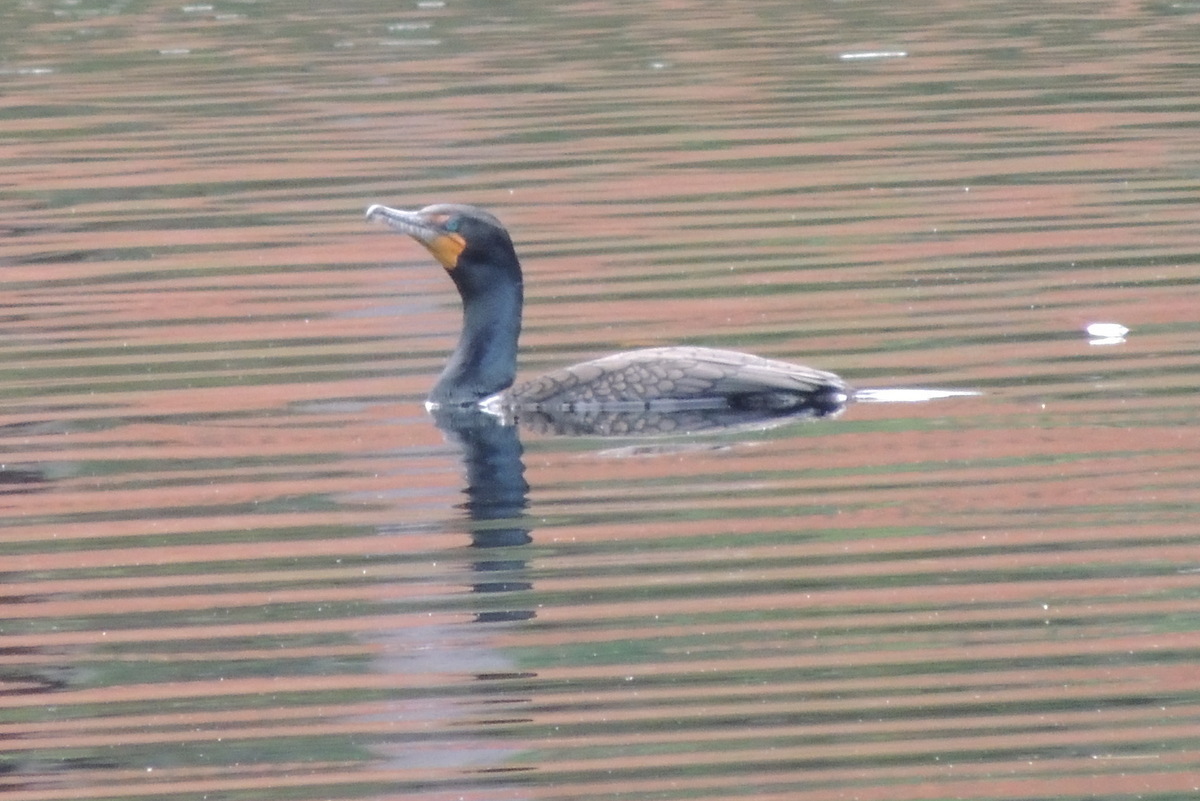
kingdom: Animalia
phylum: Chordata
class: Aves
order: Suliformes
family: Phalacrocoracidae
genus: Phalacrocorax
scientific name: Phalacrocorax auritus
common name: Double-crested cormorant
